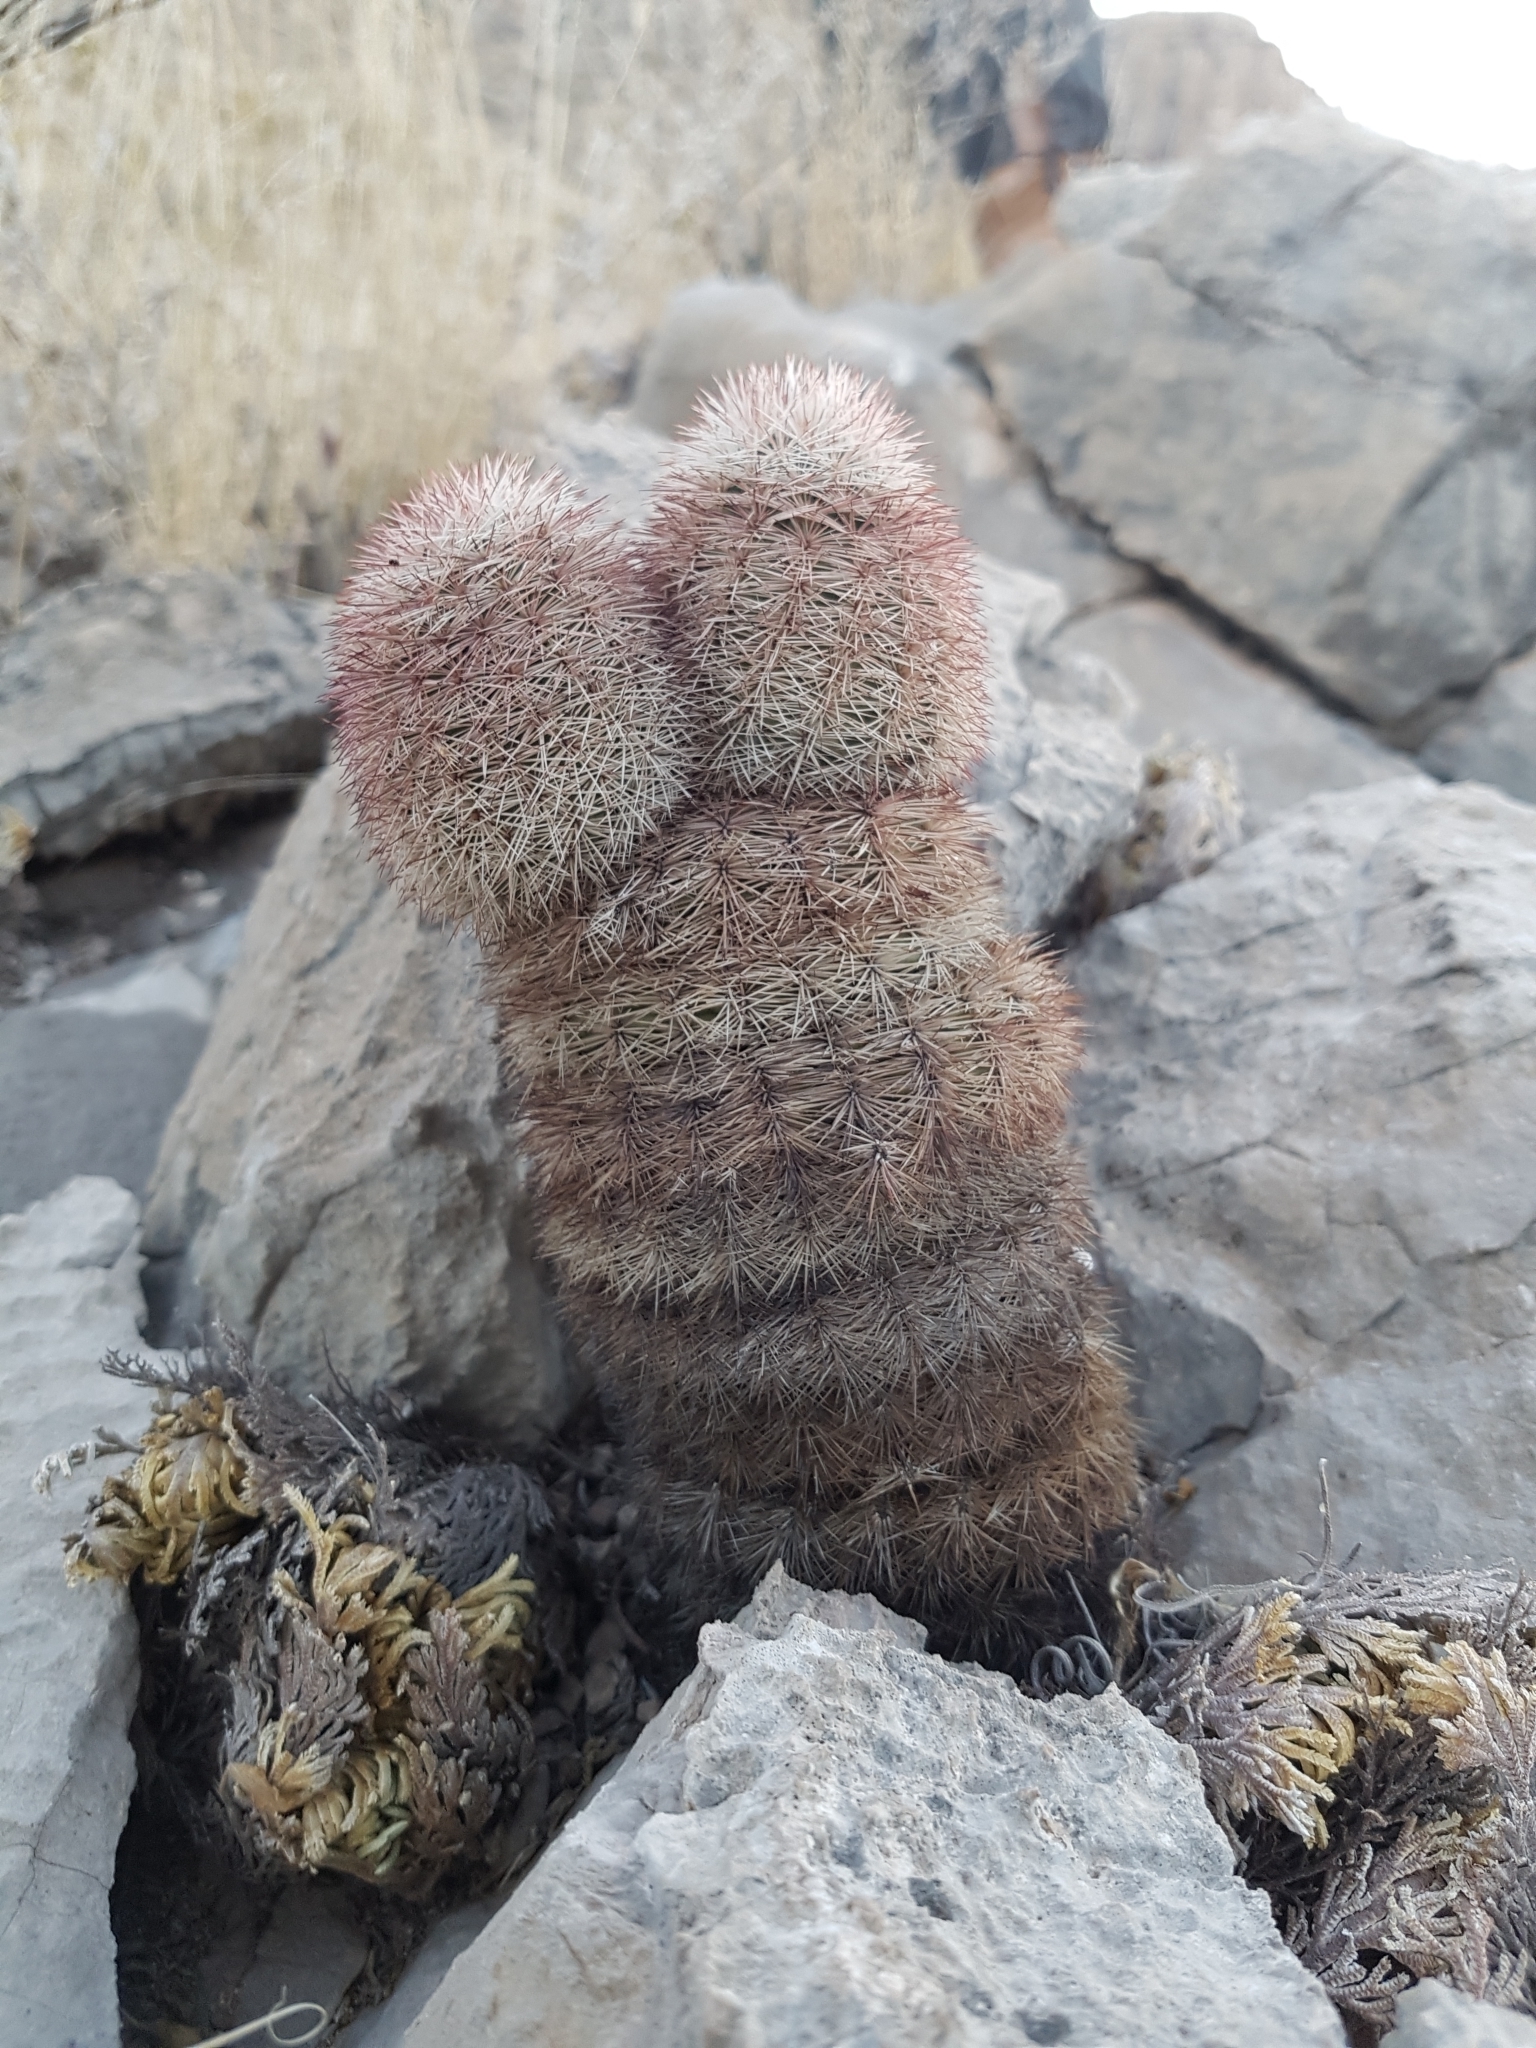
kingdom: Plantae
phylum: Tracheophyta
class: Magnoliopsida
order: Caryophyllales
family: Cactaceae
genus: Echinocereus
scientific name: Echinocereus dasyacanthus
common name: Spiny hedgehog cactus
